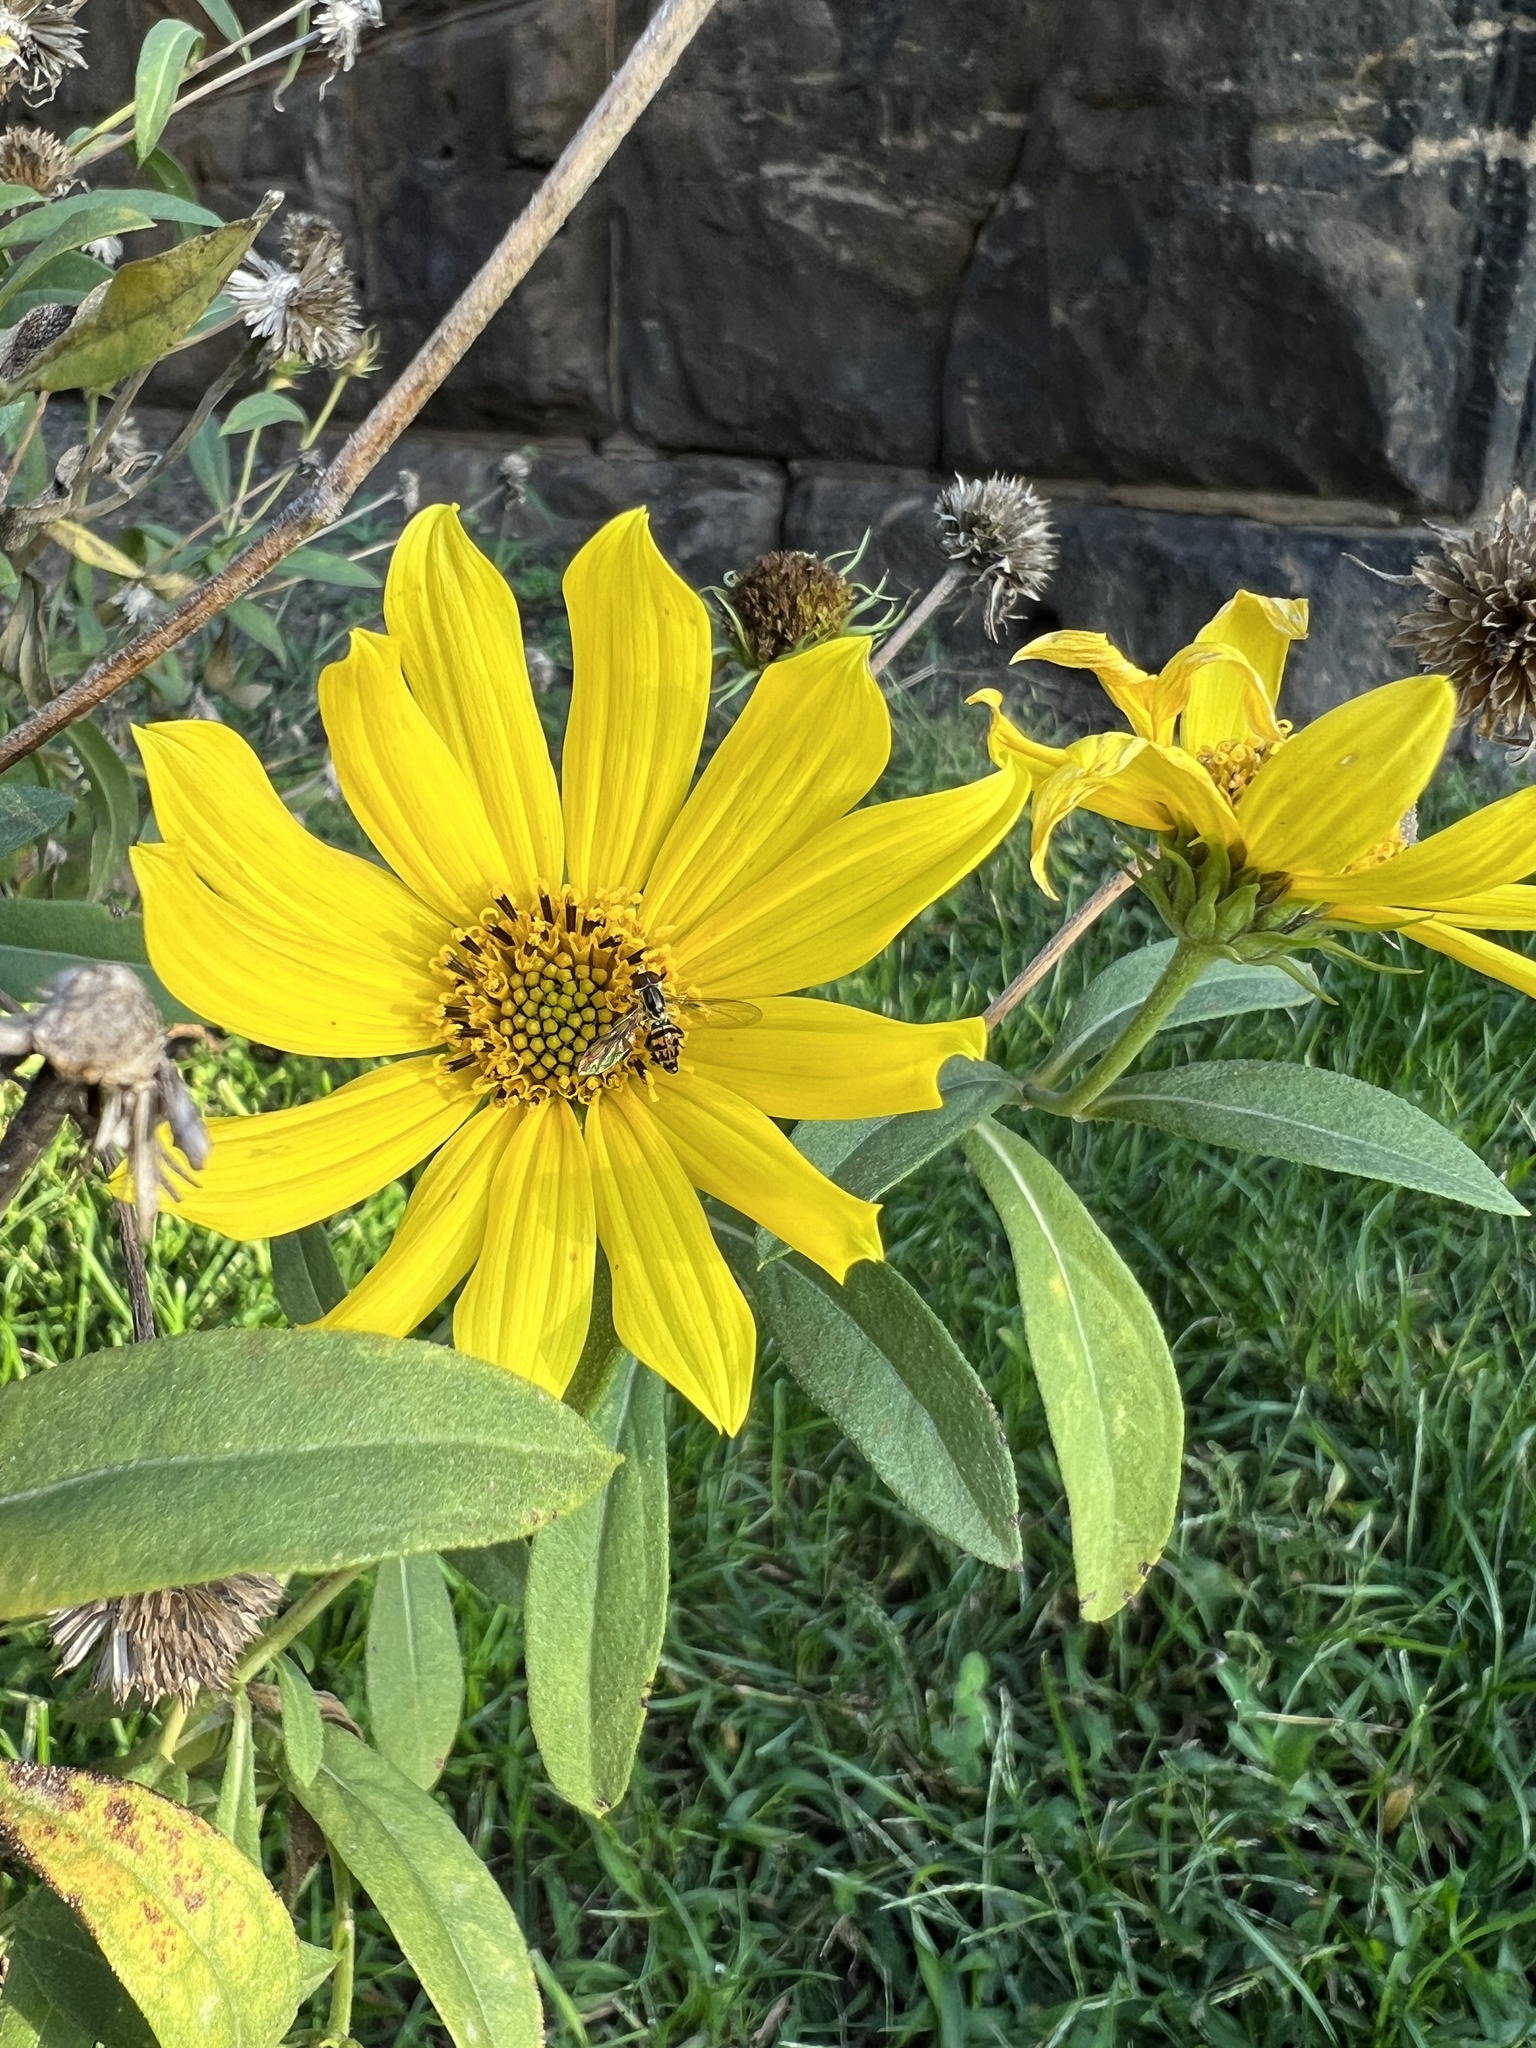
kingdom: Animalia
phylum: Arthropoda
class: Insecta
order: Diptera
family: Syrphidae
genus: Toxomerus
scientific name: Toxomerus geminatus
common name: Eastern calligrapher
